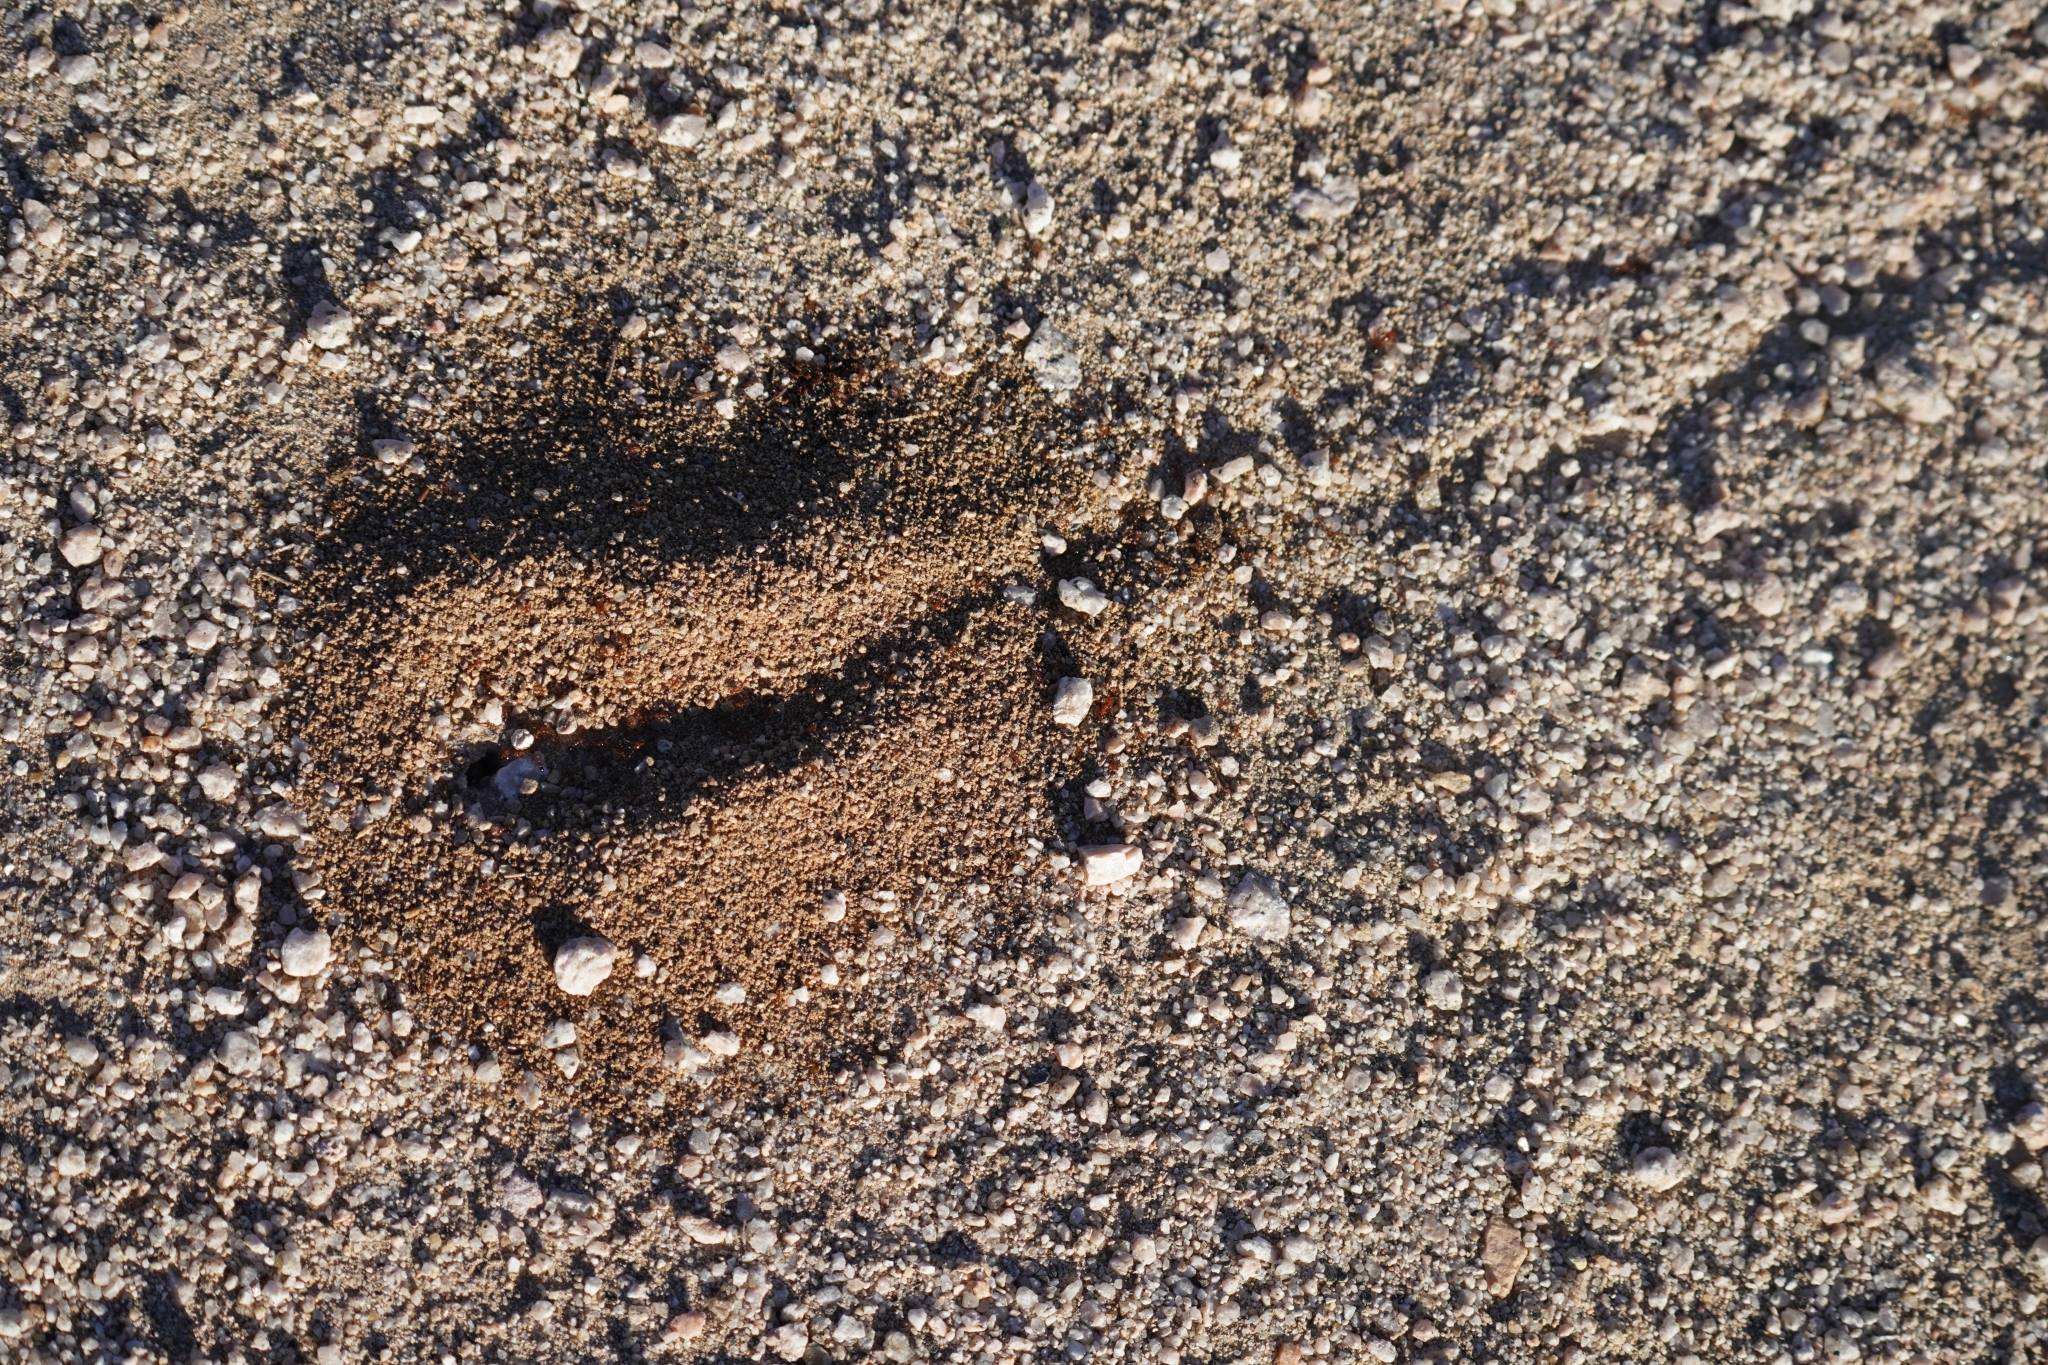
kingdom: Animalia
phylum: Arthropoda
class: Insecta
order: Hymenoptera
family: Formicidae
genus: Solenopsis
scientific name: Solenopsis xyloni
